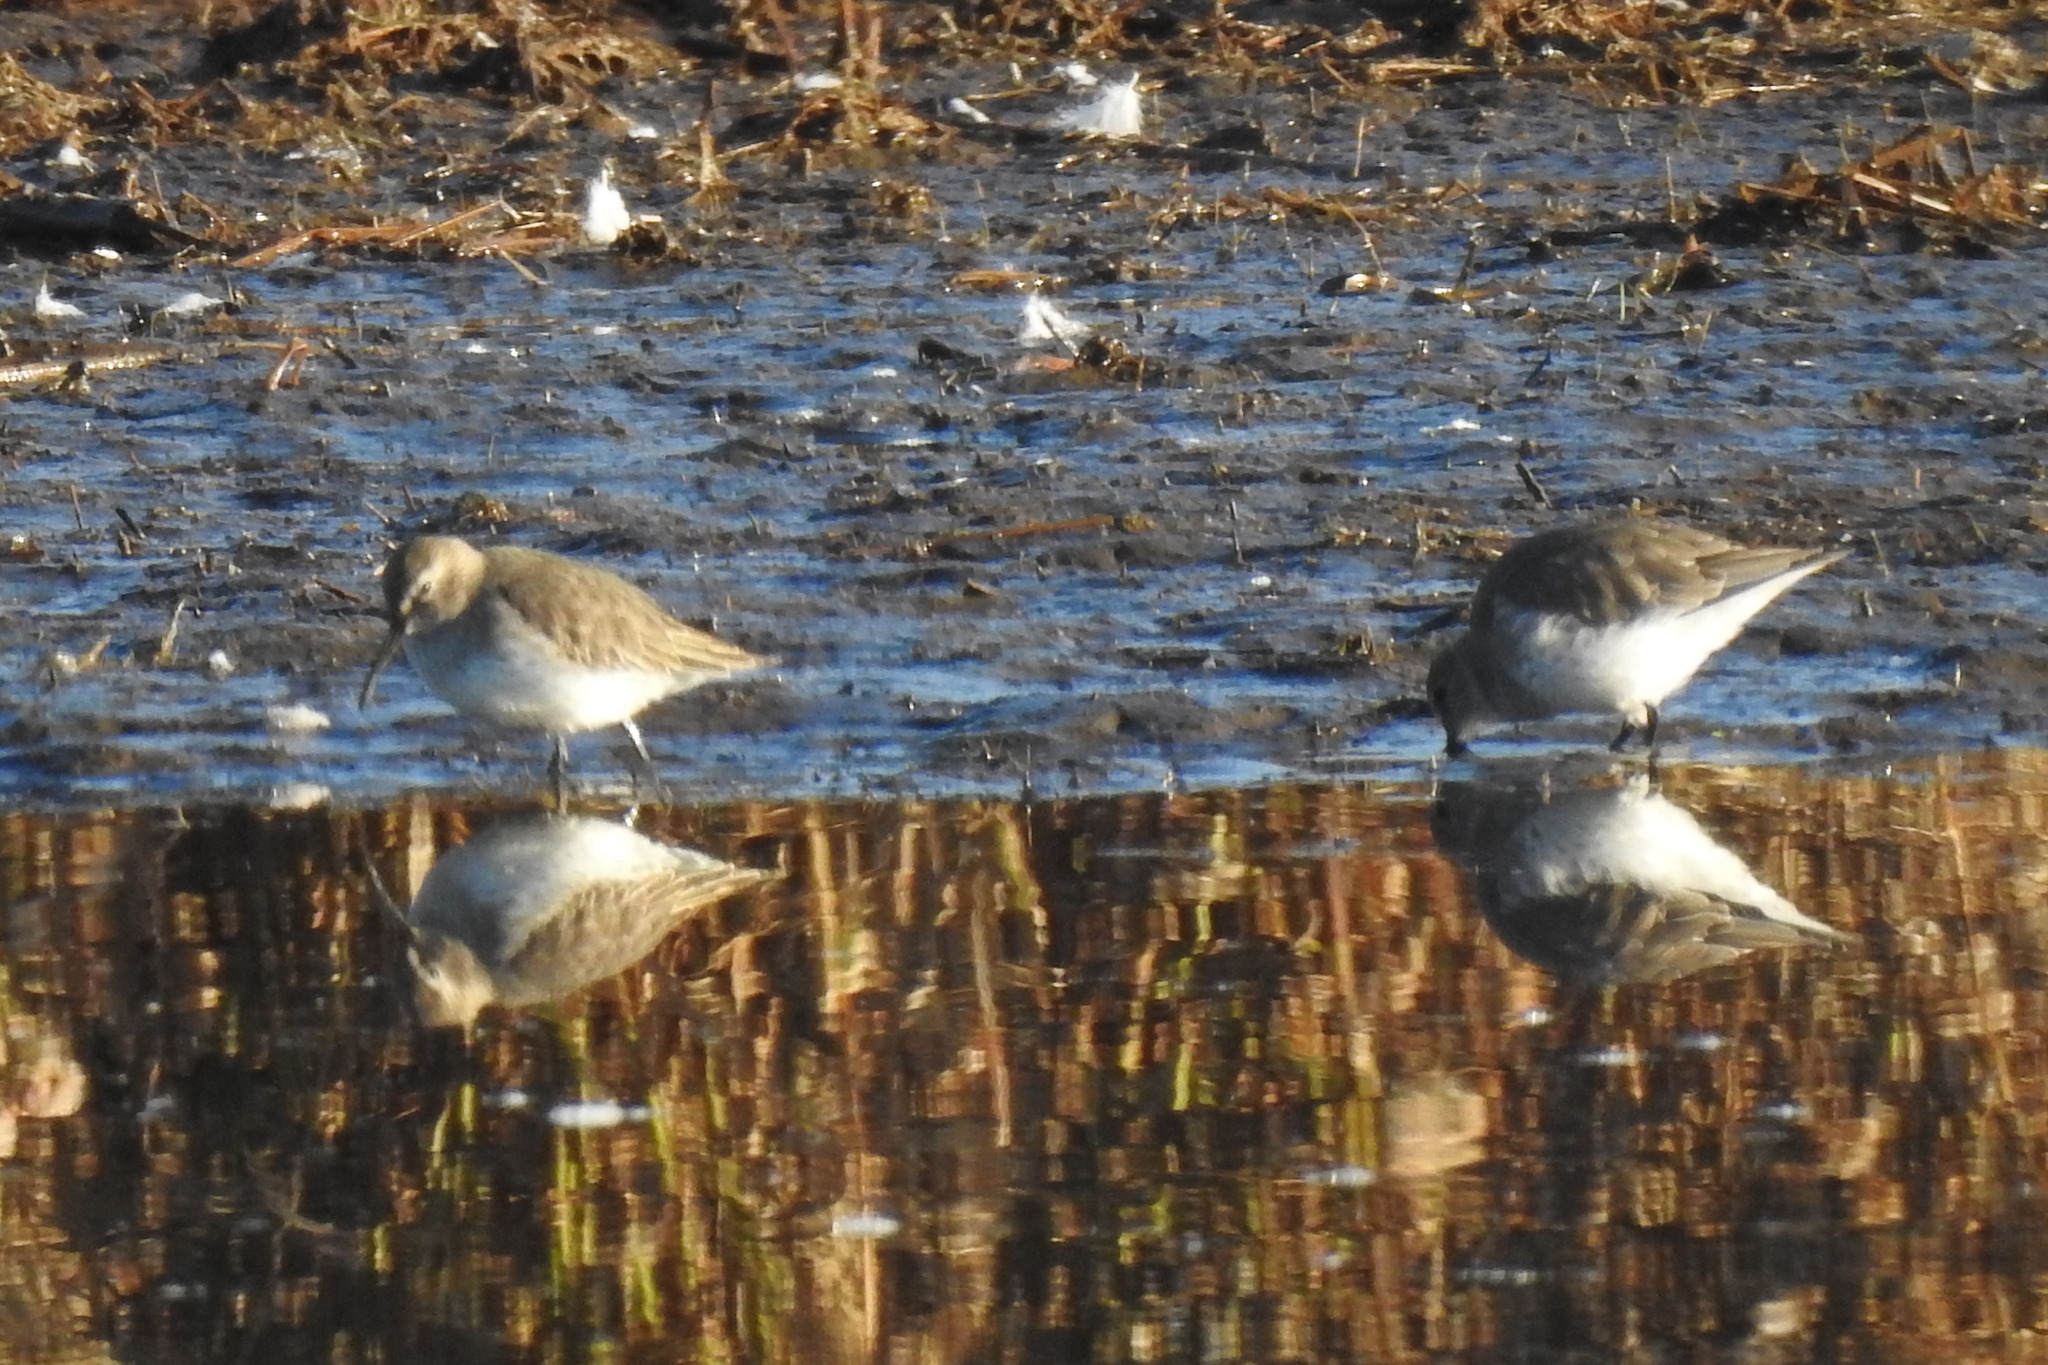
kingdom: Animalia
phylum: Chordata
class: Aves
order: Charadriiformes
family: Scolopacidae
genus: Calidris
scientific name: Calidris alpina
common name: Dunlin
